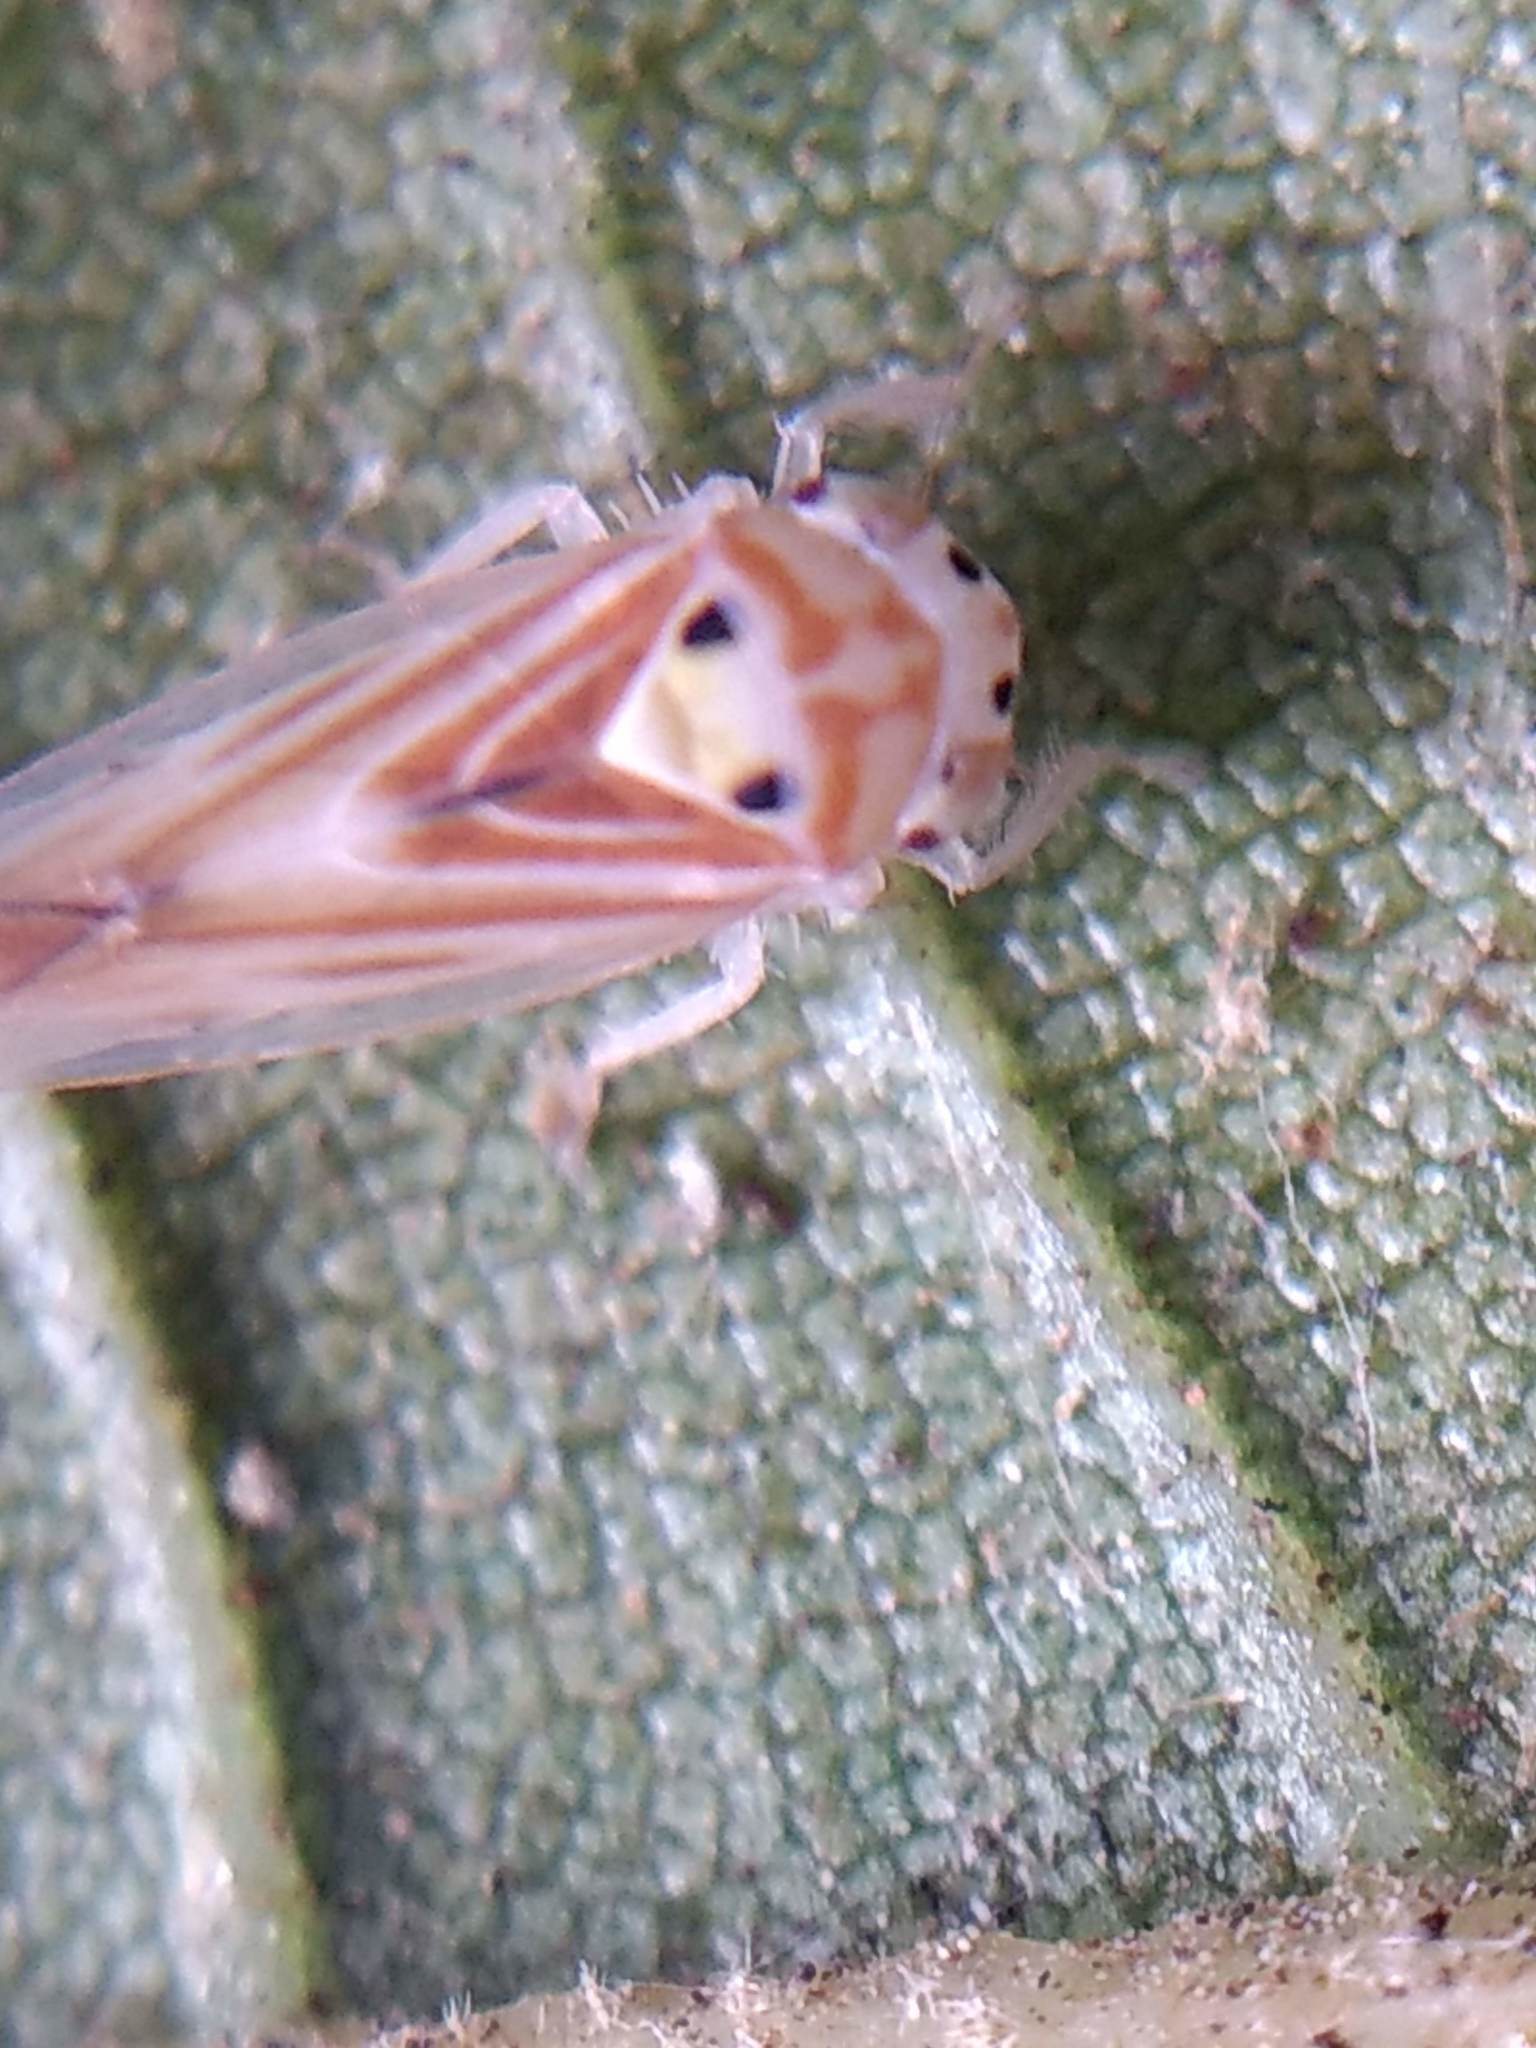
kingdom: Animalia
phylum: Arthropoda
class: Insecta
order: Hemiptera
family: Cicadellidae
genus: Caladonus
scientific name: Caladonus coquilletti
